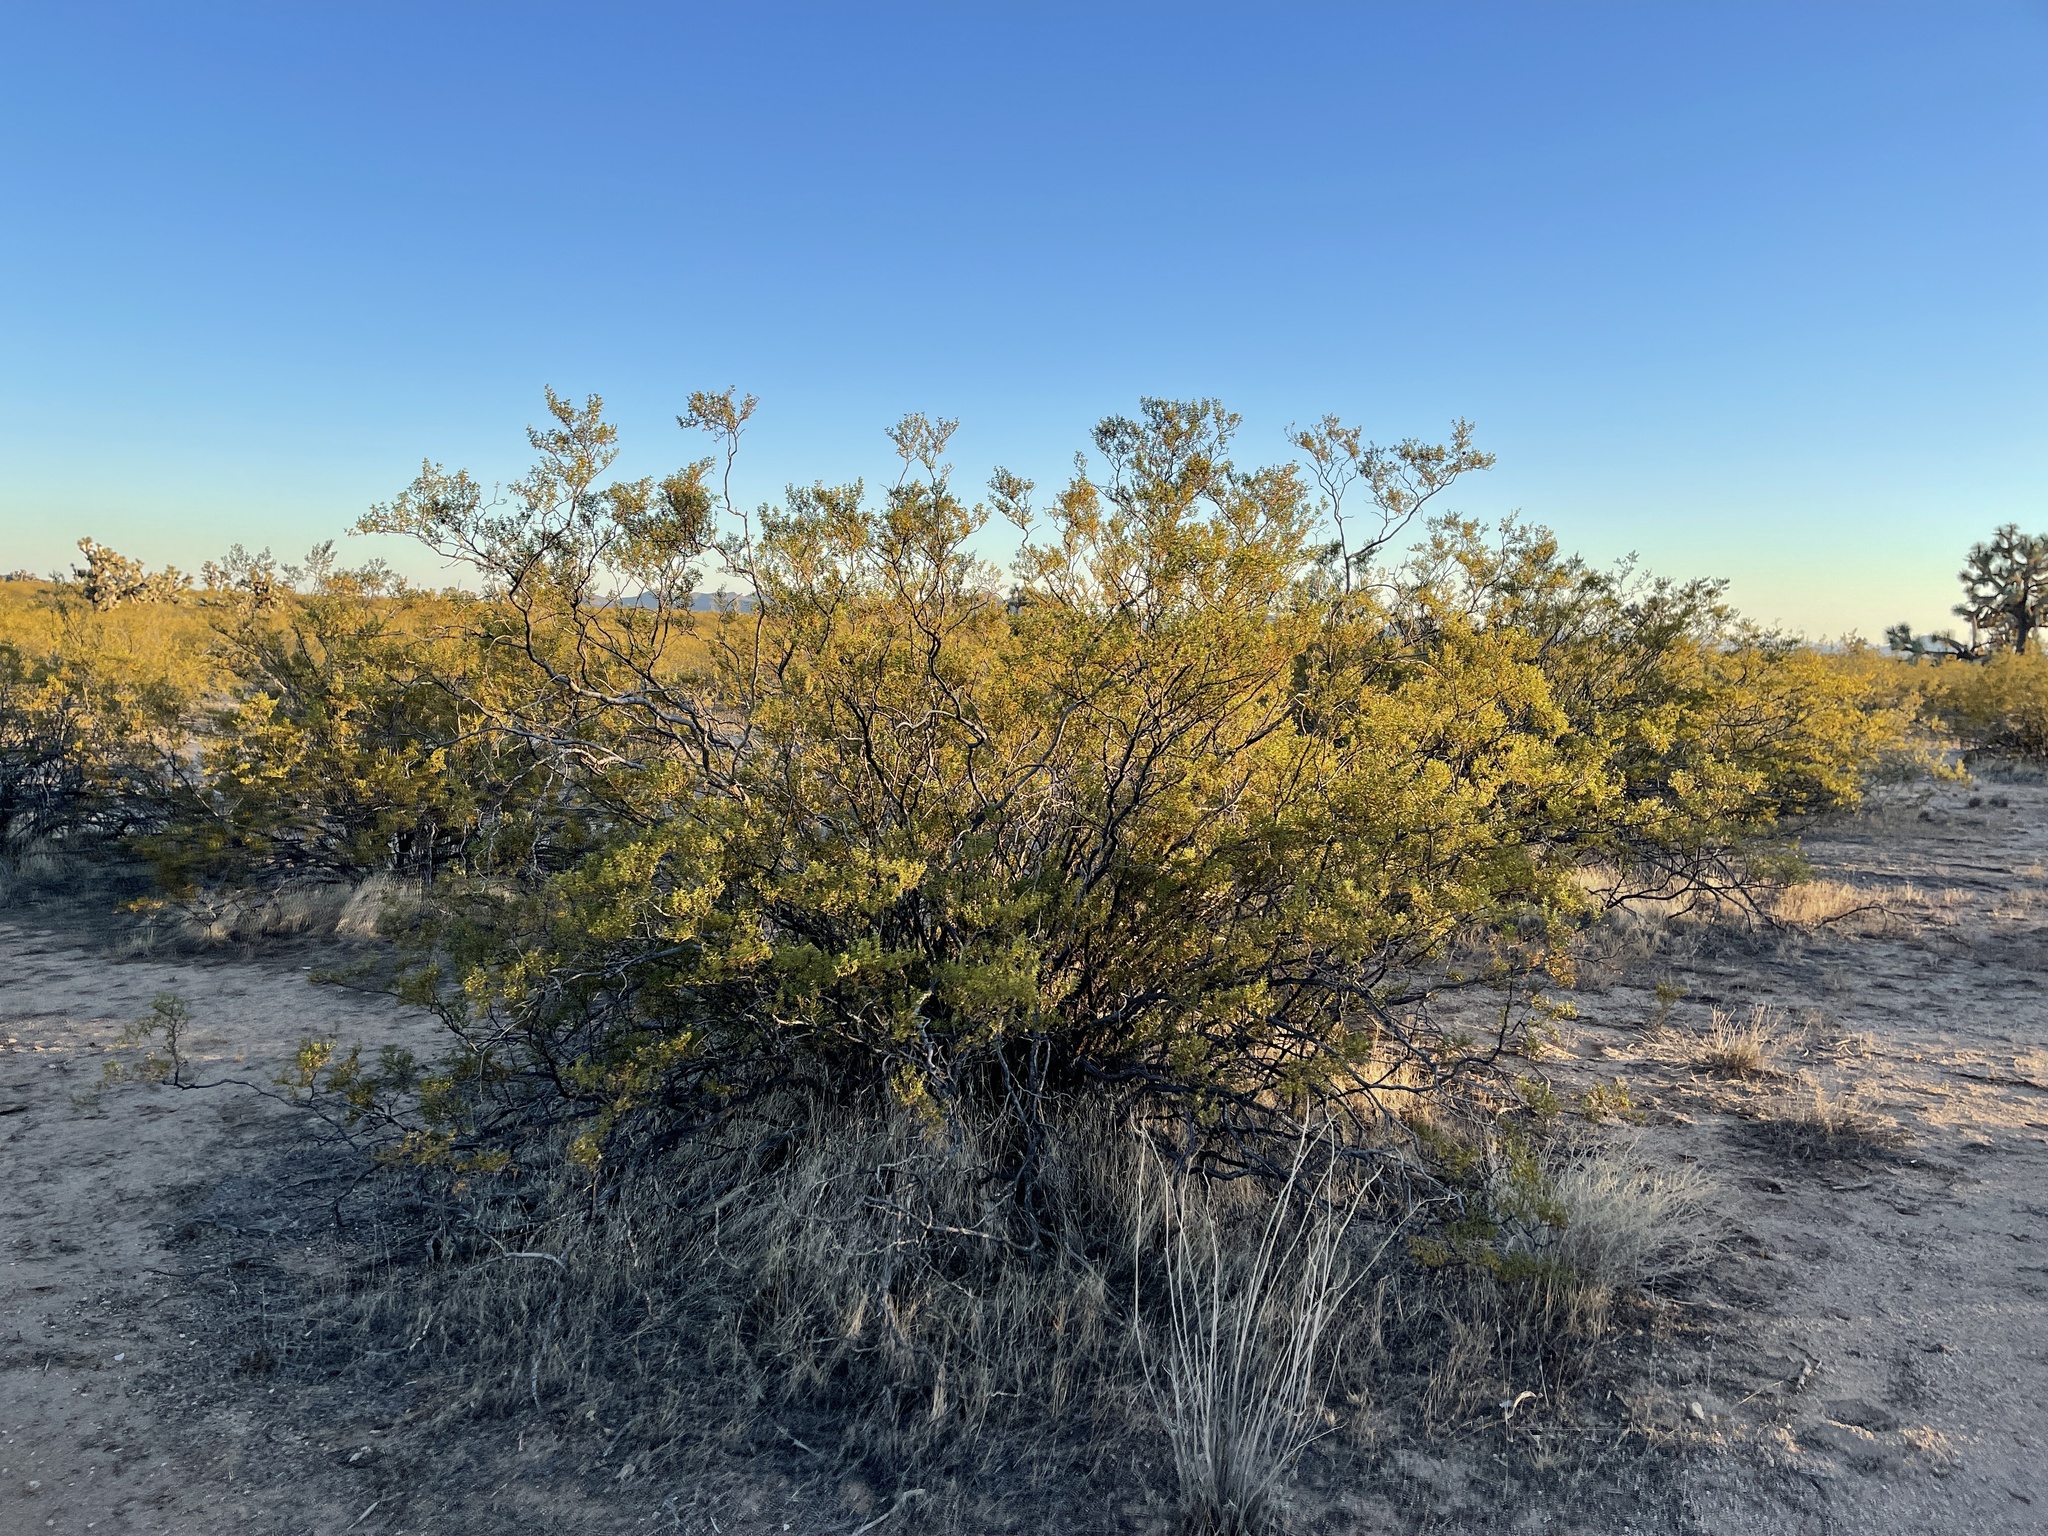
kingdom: Plantae
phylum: Tracheophyta
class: Magnoliopsida
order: Zygophyllales
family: Zygophyllaceae
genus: Larrea
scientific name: Larrea tridentata
